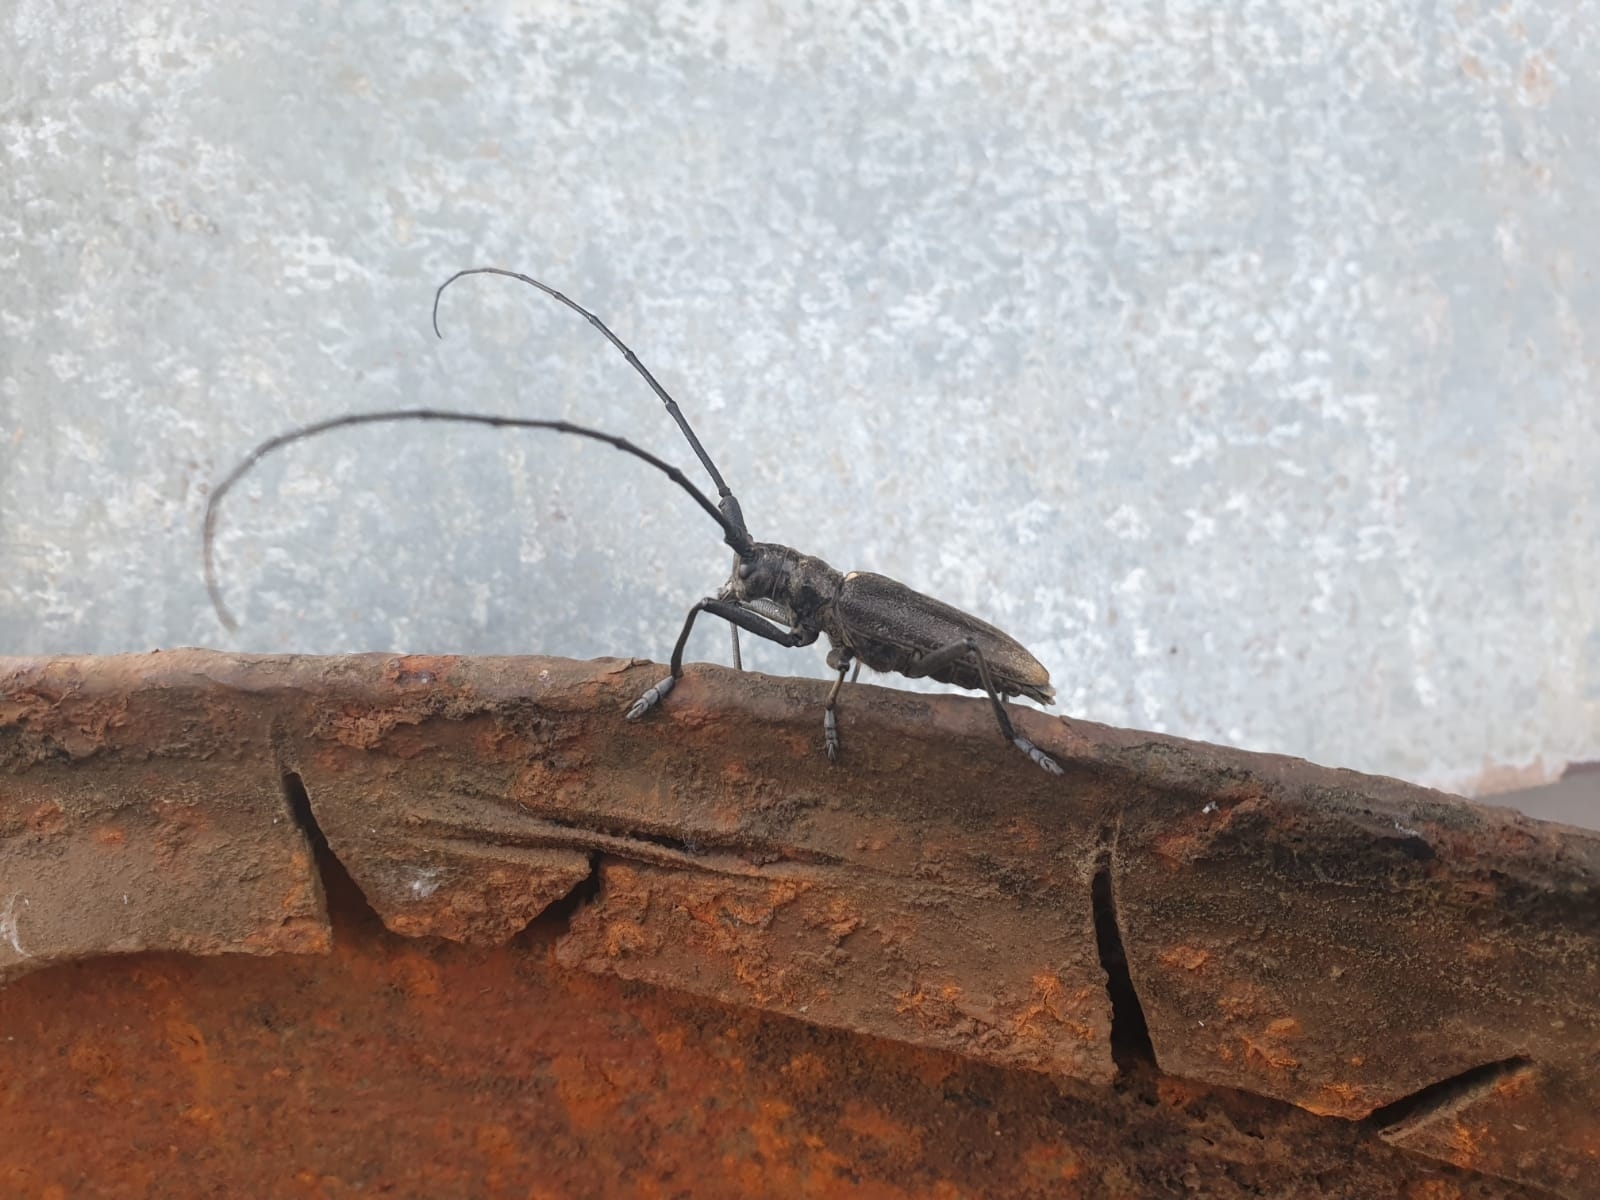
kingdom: Animalia
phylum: Arthropoda
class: Insecta
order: Coleoptera
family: Cerambycidae
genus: Monochamus
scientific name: Monochamus sartor
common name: Pine sawyer
